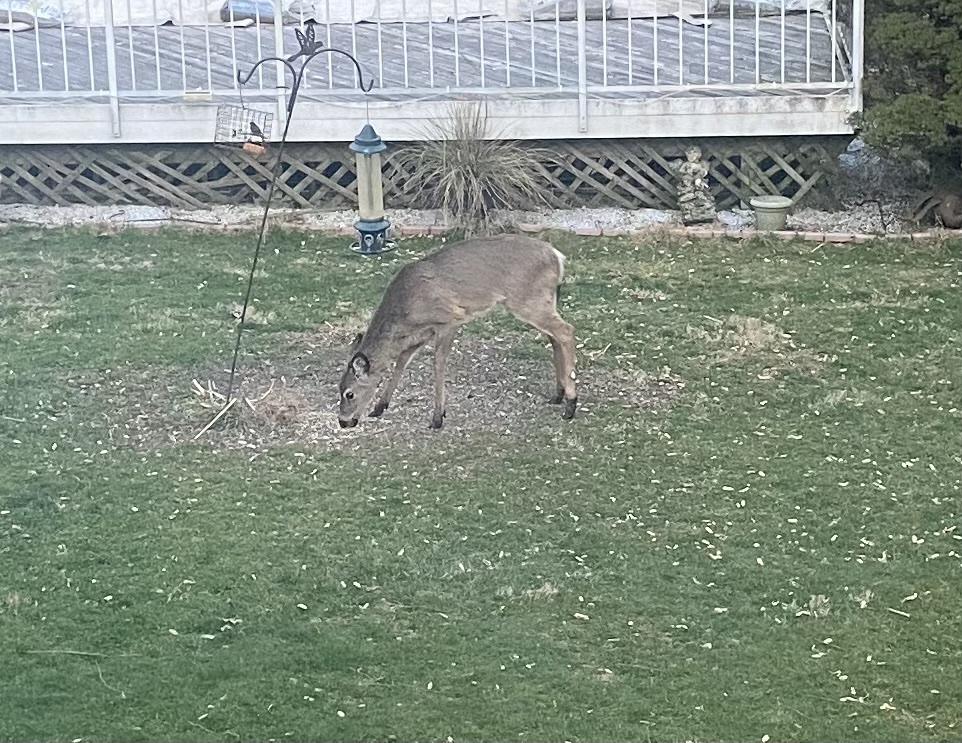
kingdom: Animalia
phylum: Chordata
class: Mammalia
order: Artiodactyla
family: Cervidae
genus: Odocoileus
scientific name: Odocoileus virginianus
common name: White-tailed deer
